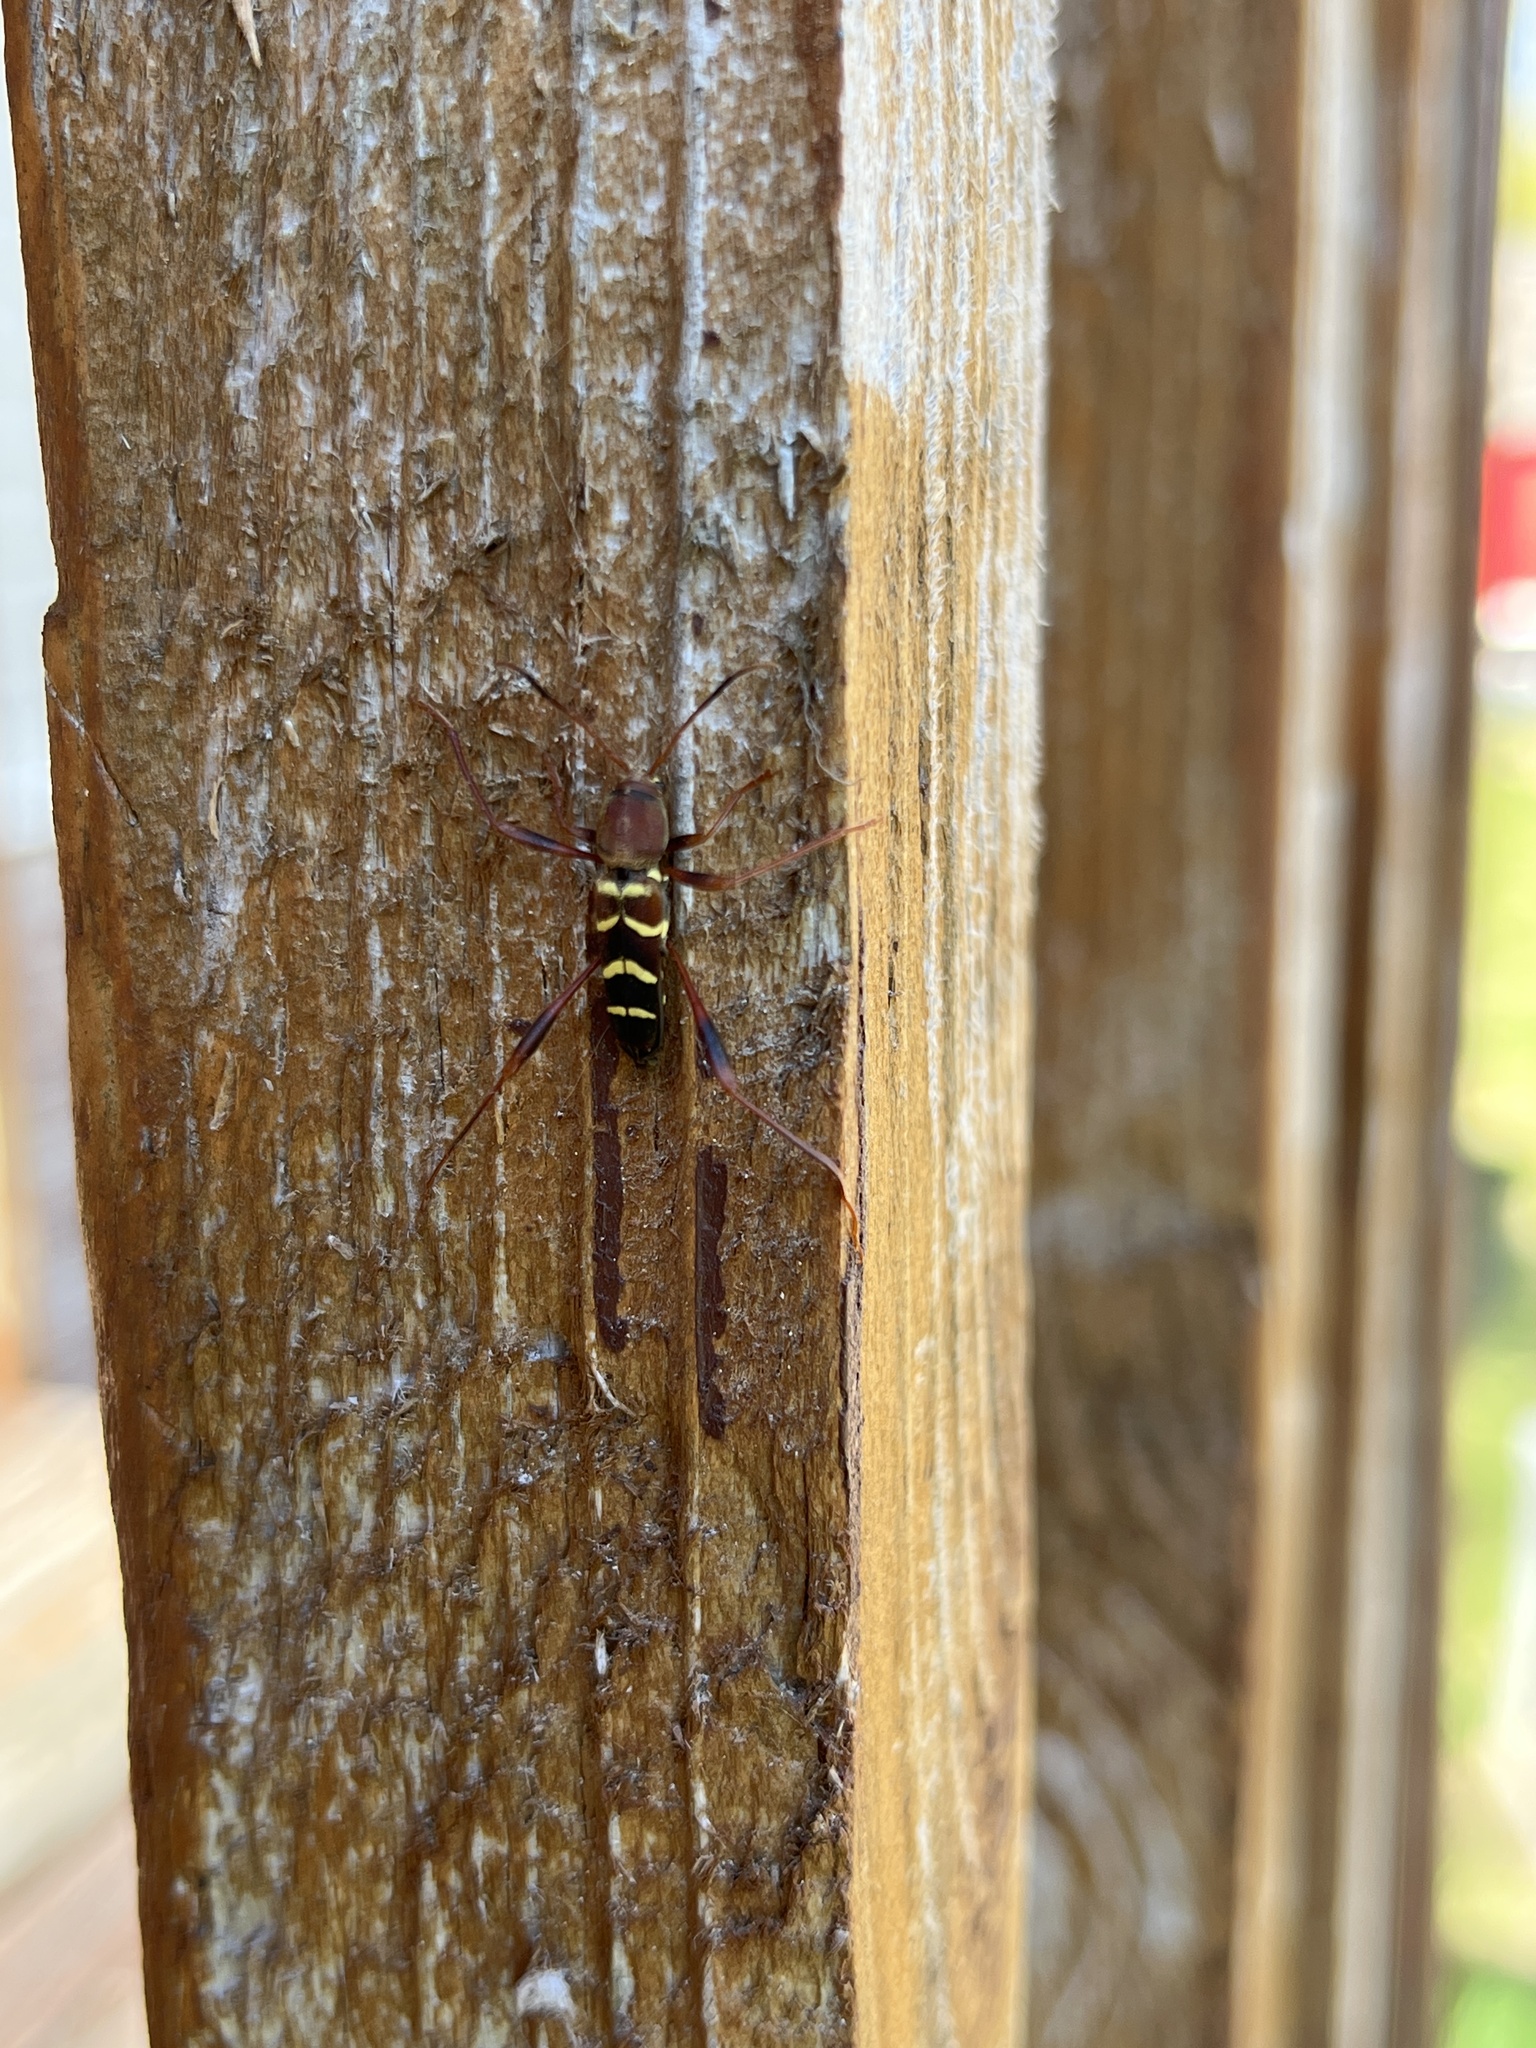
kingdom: Animalia
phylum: Arthropoda
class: Insecta
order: Coleoptera
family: Cerambycidae
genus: Neoclytus
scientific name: Neoclytus acuminatus
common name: Read-headed ash borer
